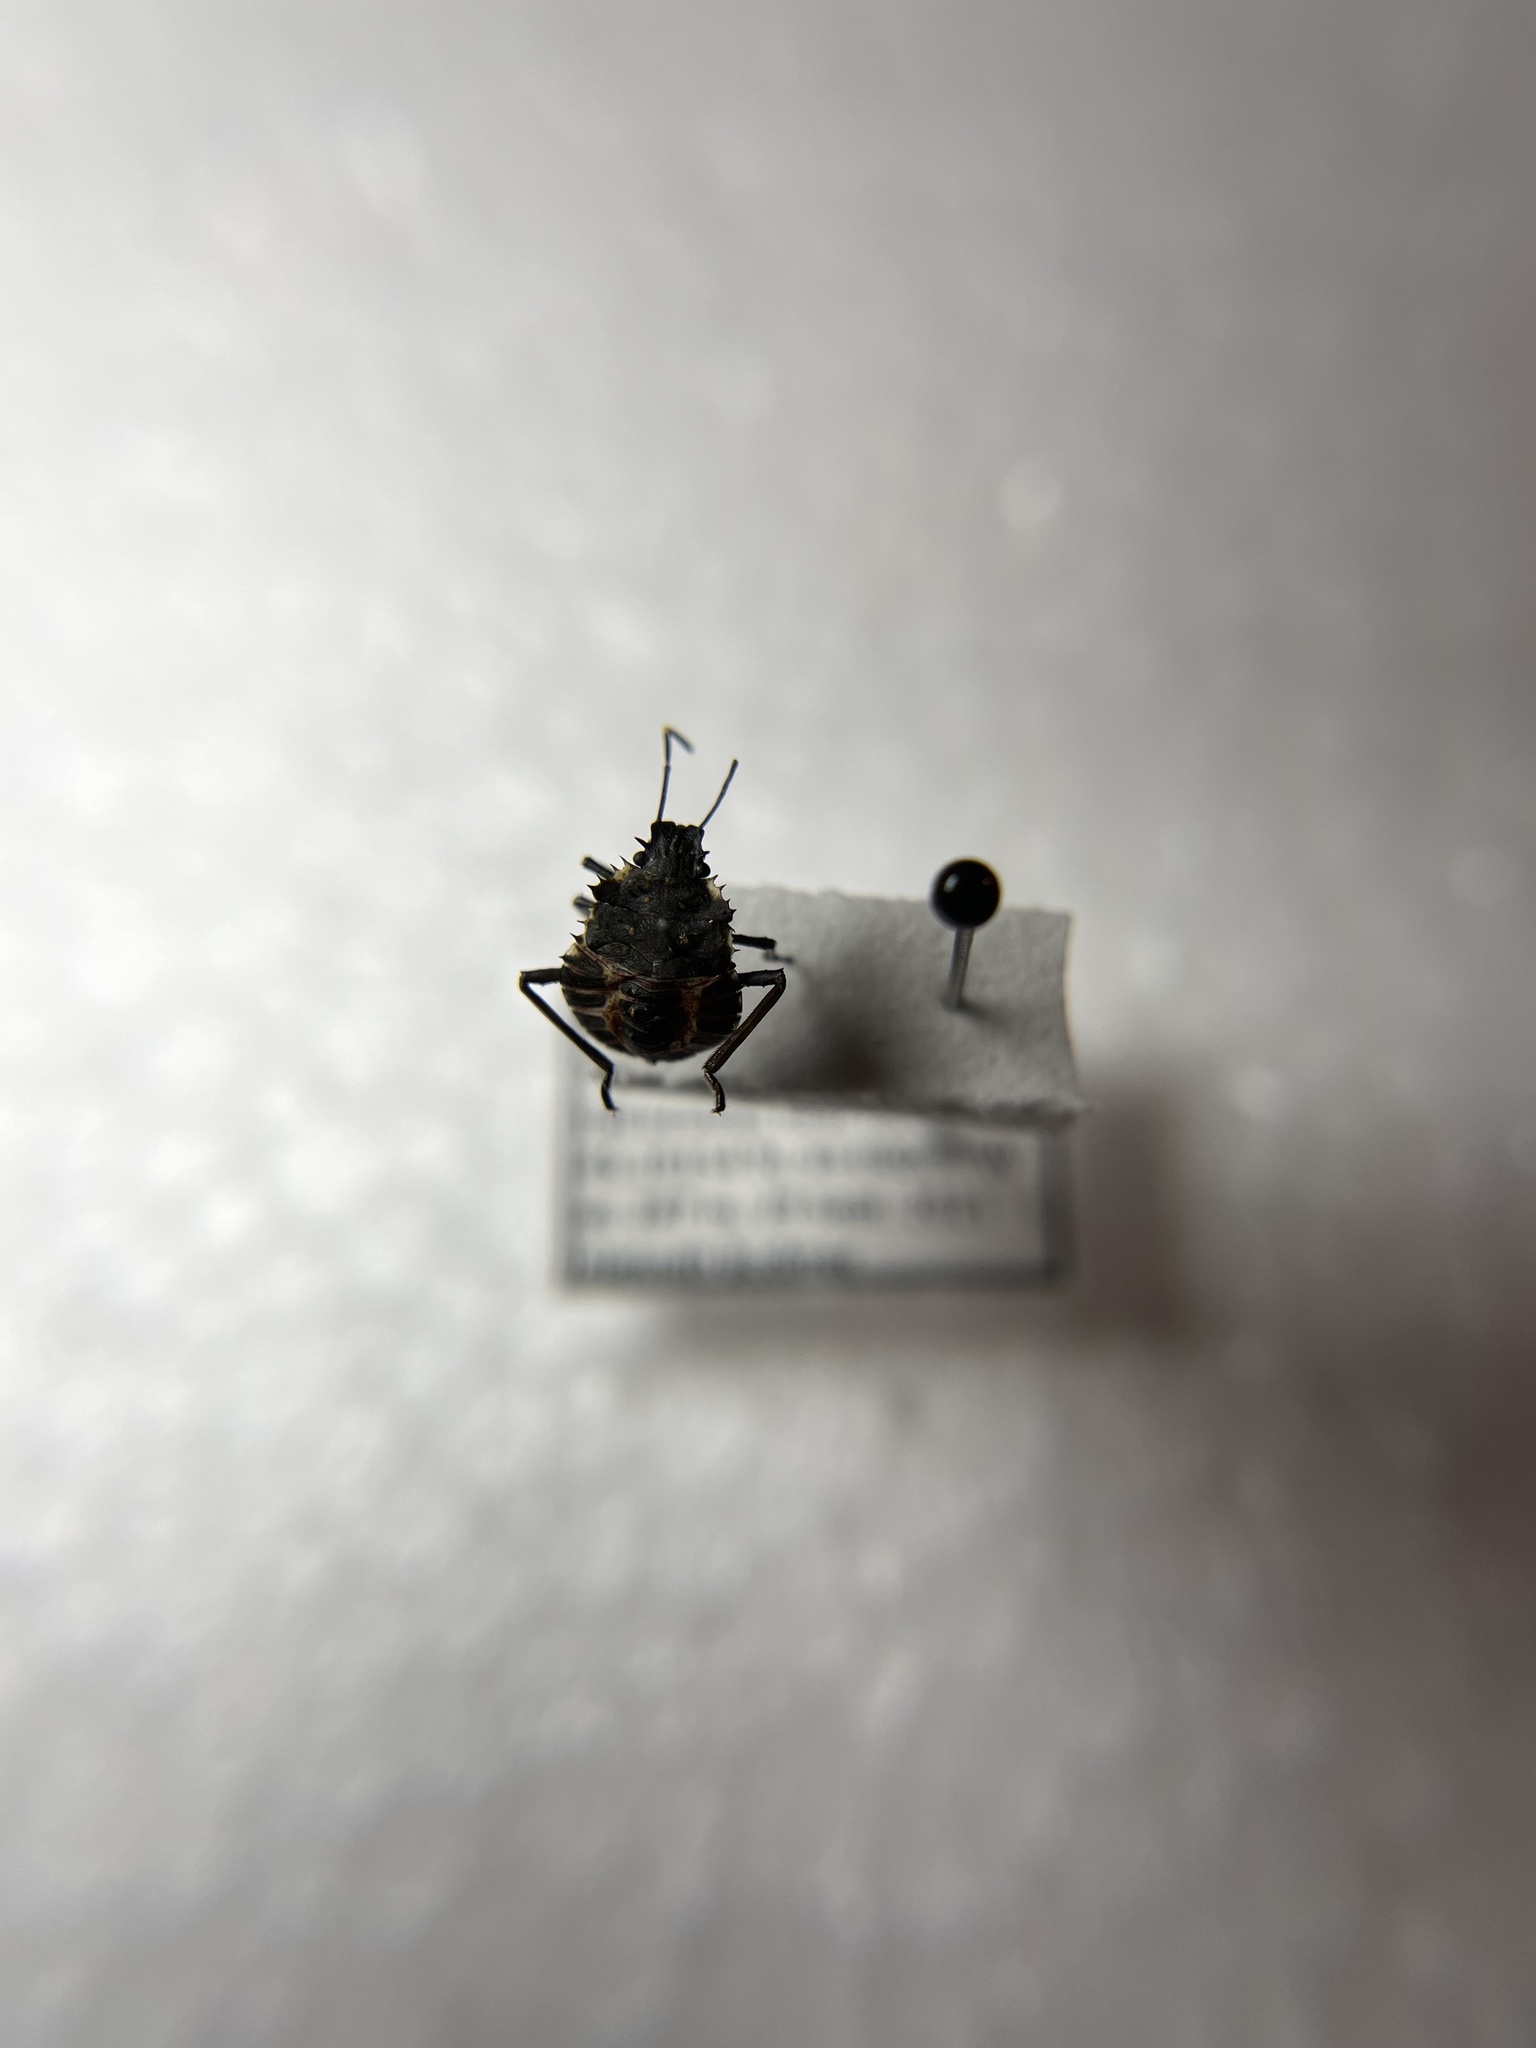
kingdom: Animalia
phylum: Arthropoda
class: Insecta
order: Hemiptera
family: Pentatomidae
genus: Halyomorpha
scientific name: Halyomorpha halys
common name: Brown marmorated stink bug
